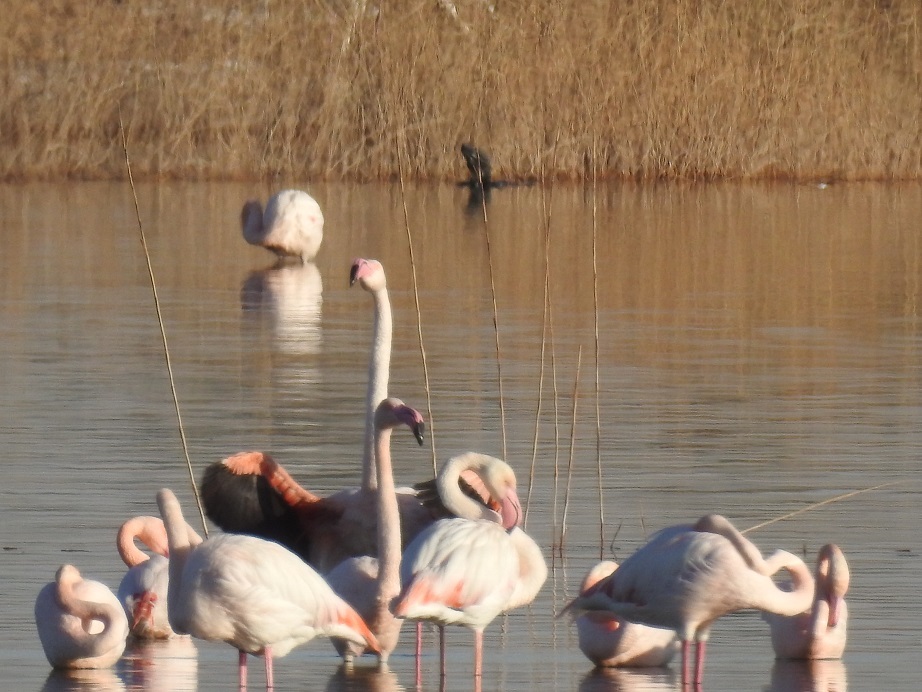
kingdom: Animalia
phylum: Chordata
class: Aves
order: Phoenicopteriformes
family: Phoenicopteridae
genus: Phoenicopterus
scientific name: Phoenicopterus roseus
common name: Greater flamingo
